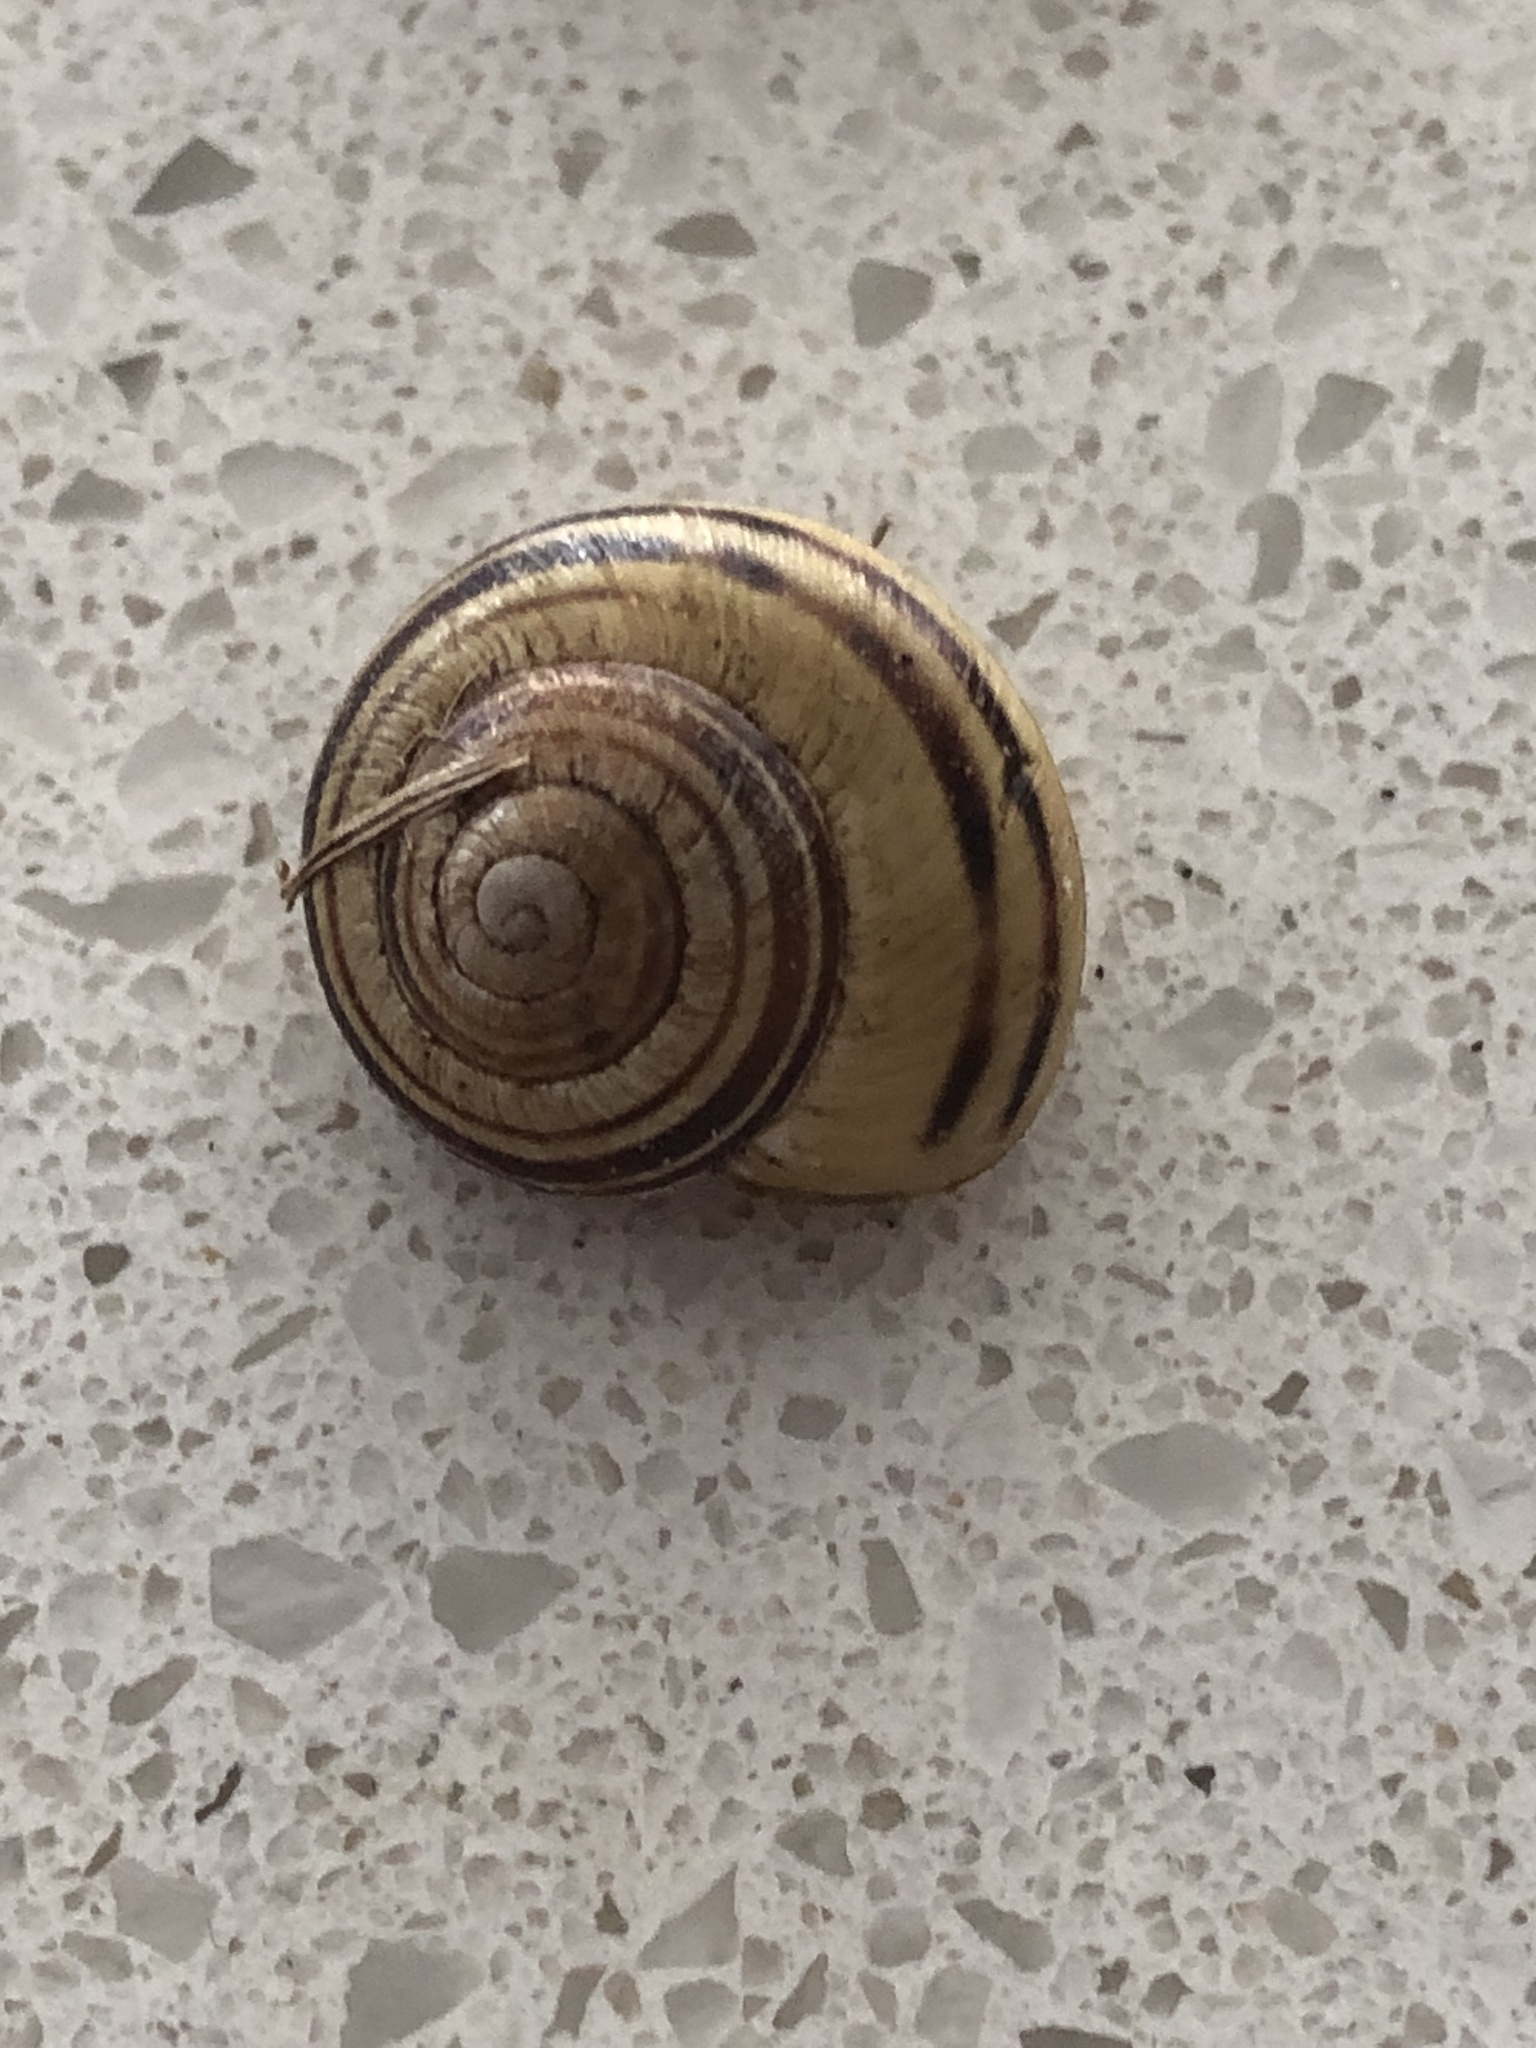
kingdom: Animalia
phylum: Mollusca
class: Gastropoda
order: Stylommatophora
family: Helicidae
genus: Cepaea
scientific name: Cepaea nemoralis
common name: Grovesnail
